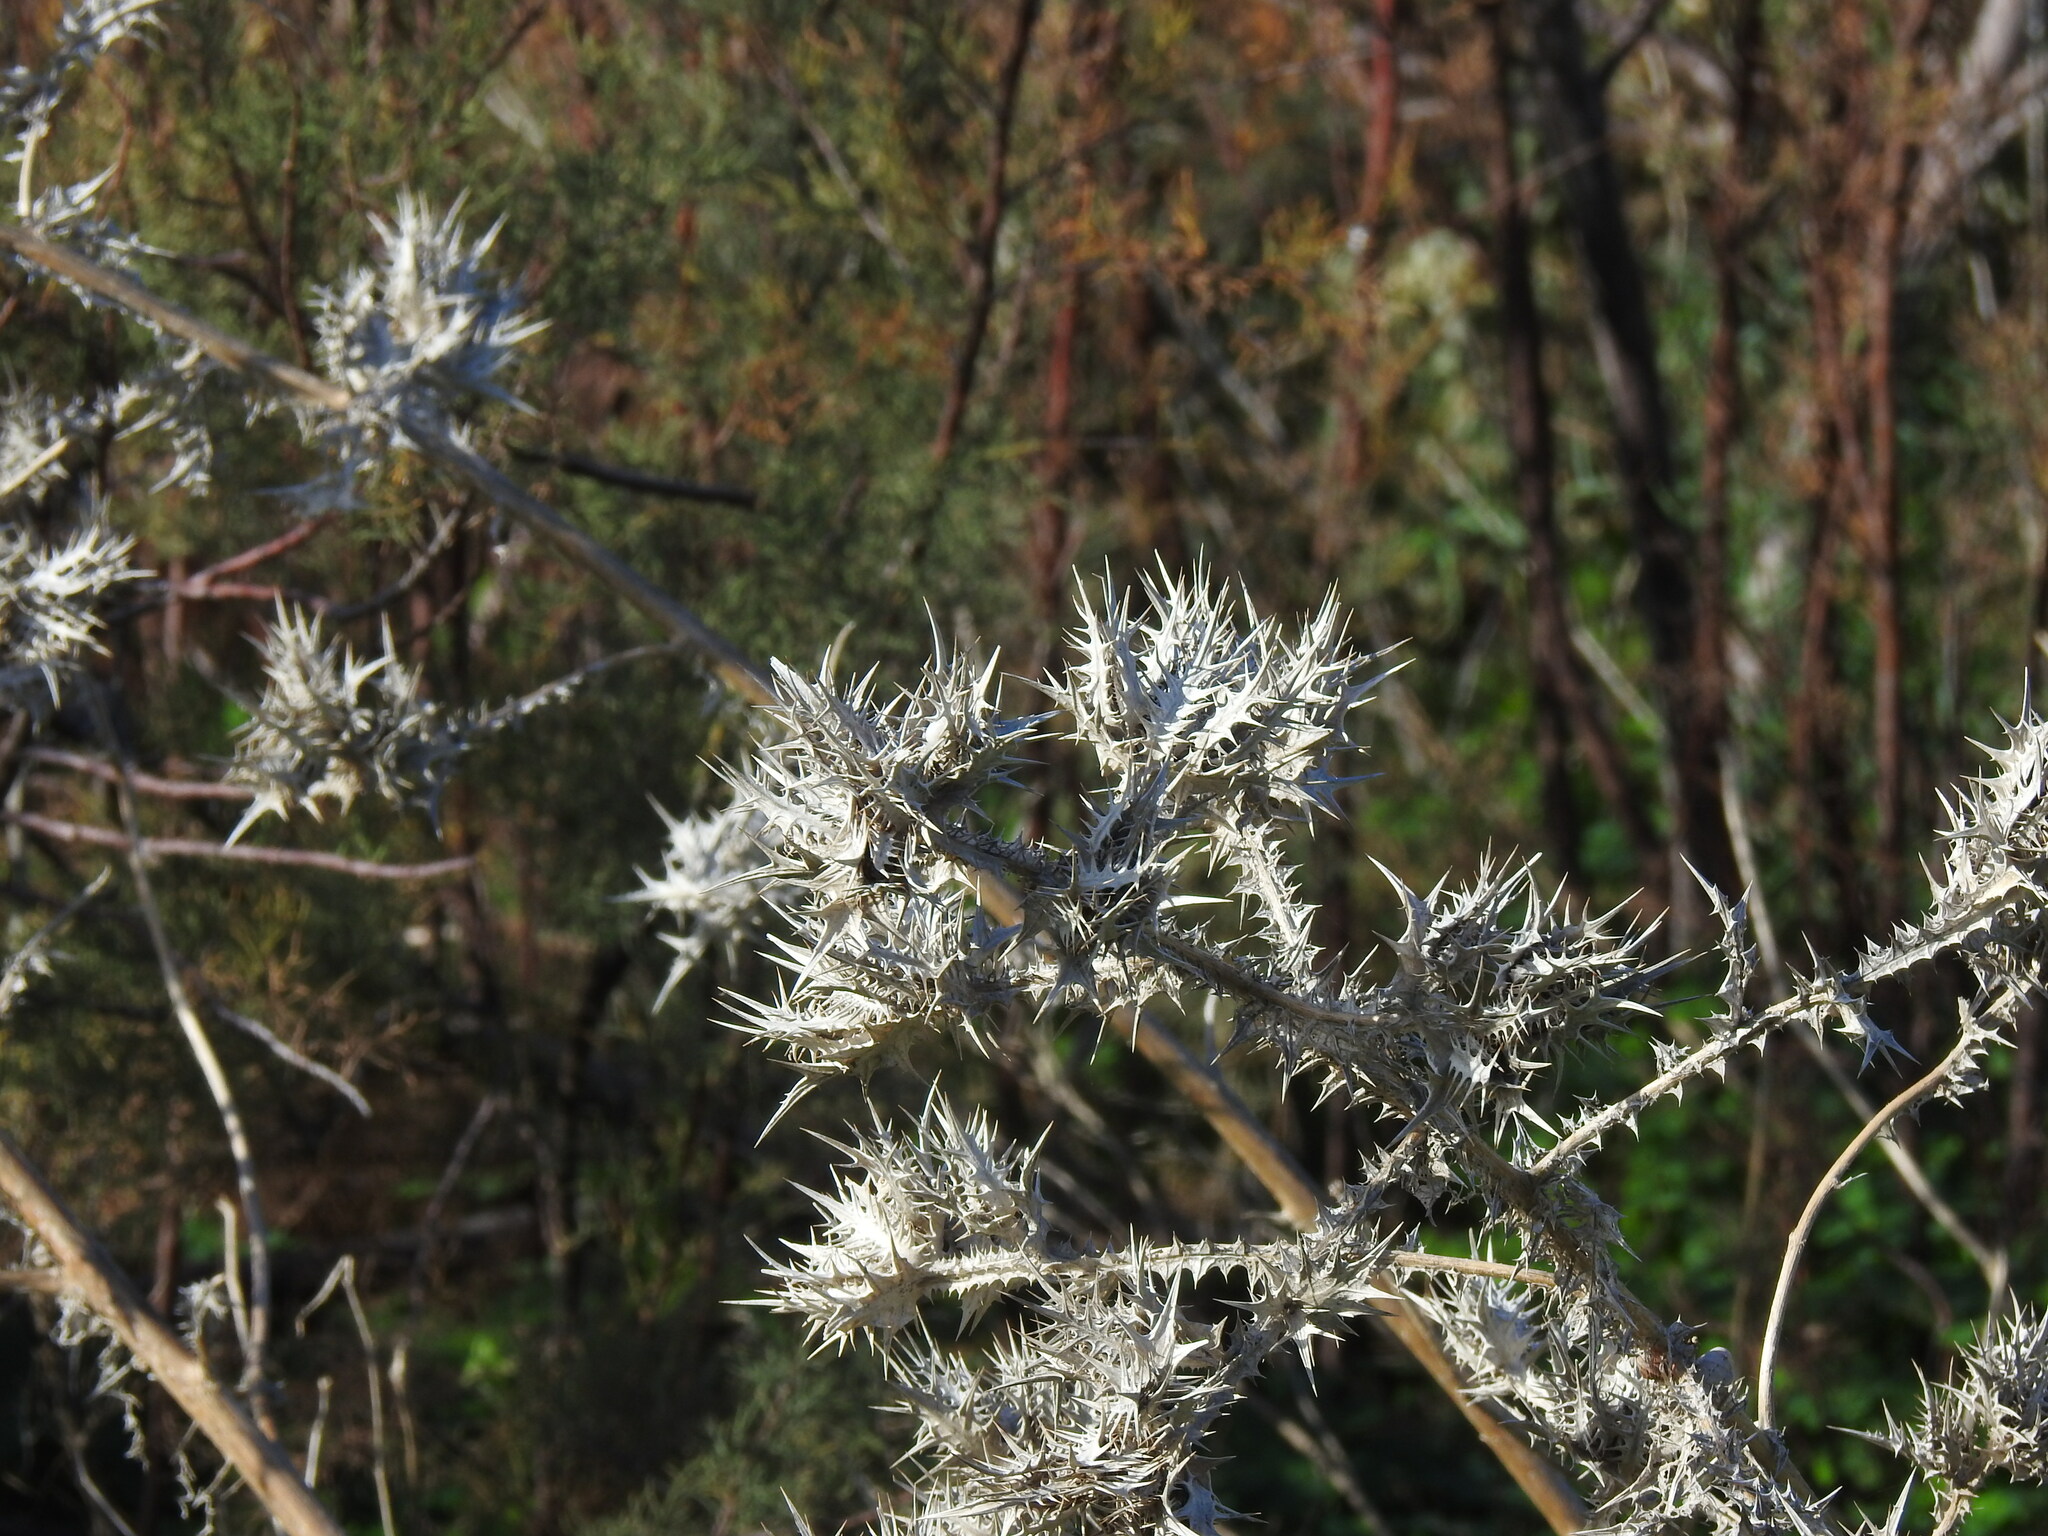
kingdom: Plantae
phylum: Tracheophyta
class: Magnoliopsida
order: Asterales
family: Asteraceae
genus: Scolymus
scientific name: Scolymus maculatus
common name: Spotted thistle
